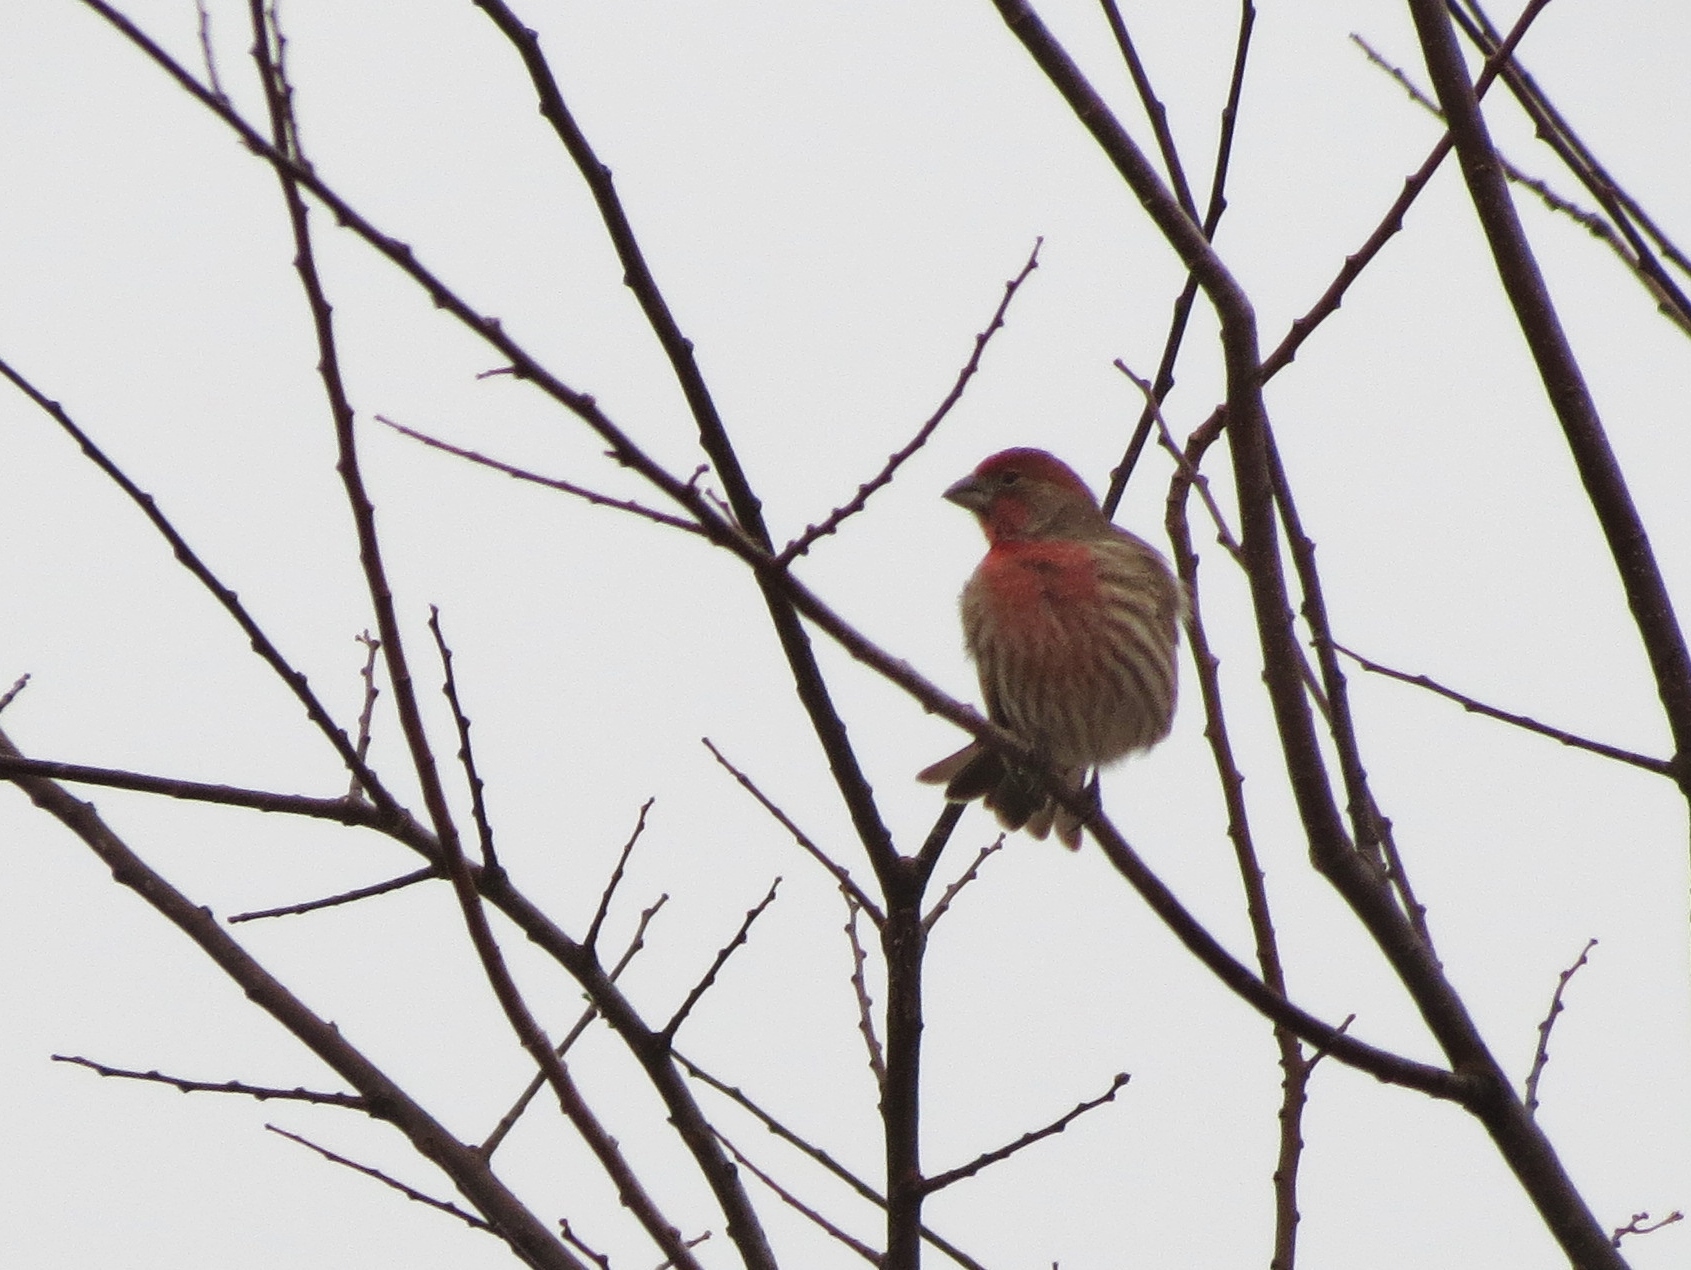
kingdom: Animalia
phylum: Chordata
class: Aves
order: Passeriformes
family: Fringillidae
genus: Haemorhous
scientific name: Haemorhous mexicanus
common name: House finch
